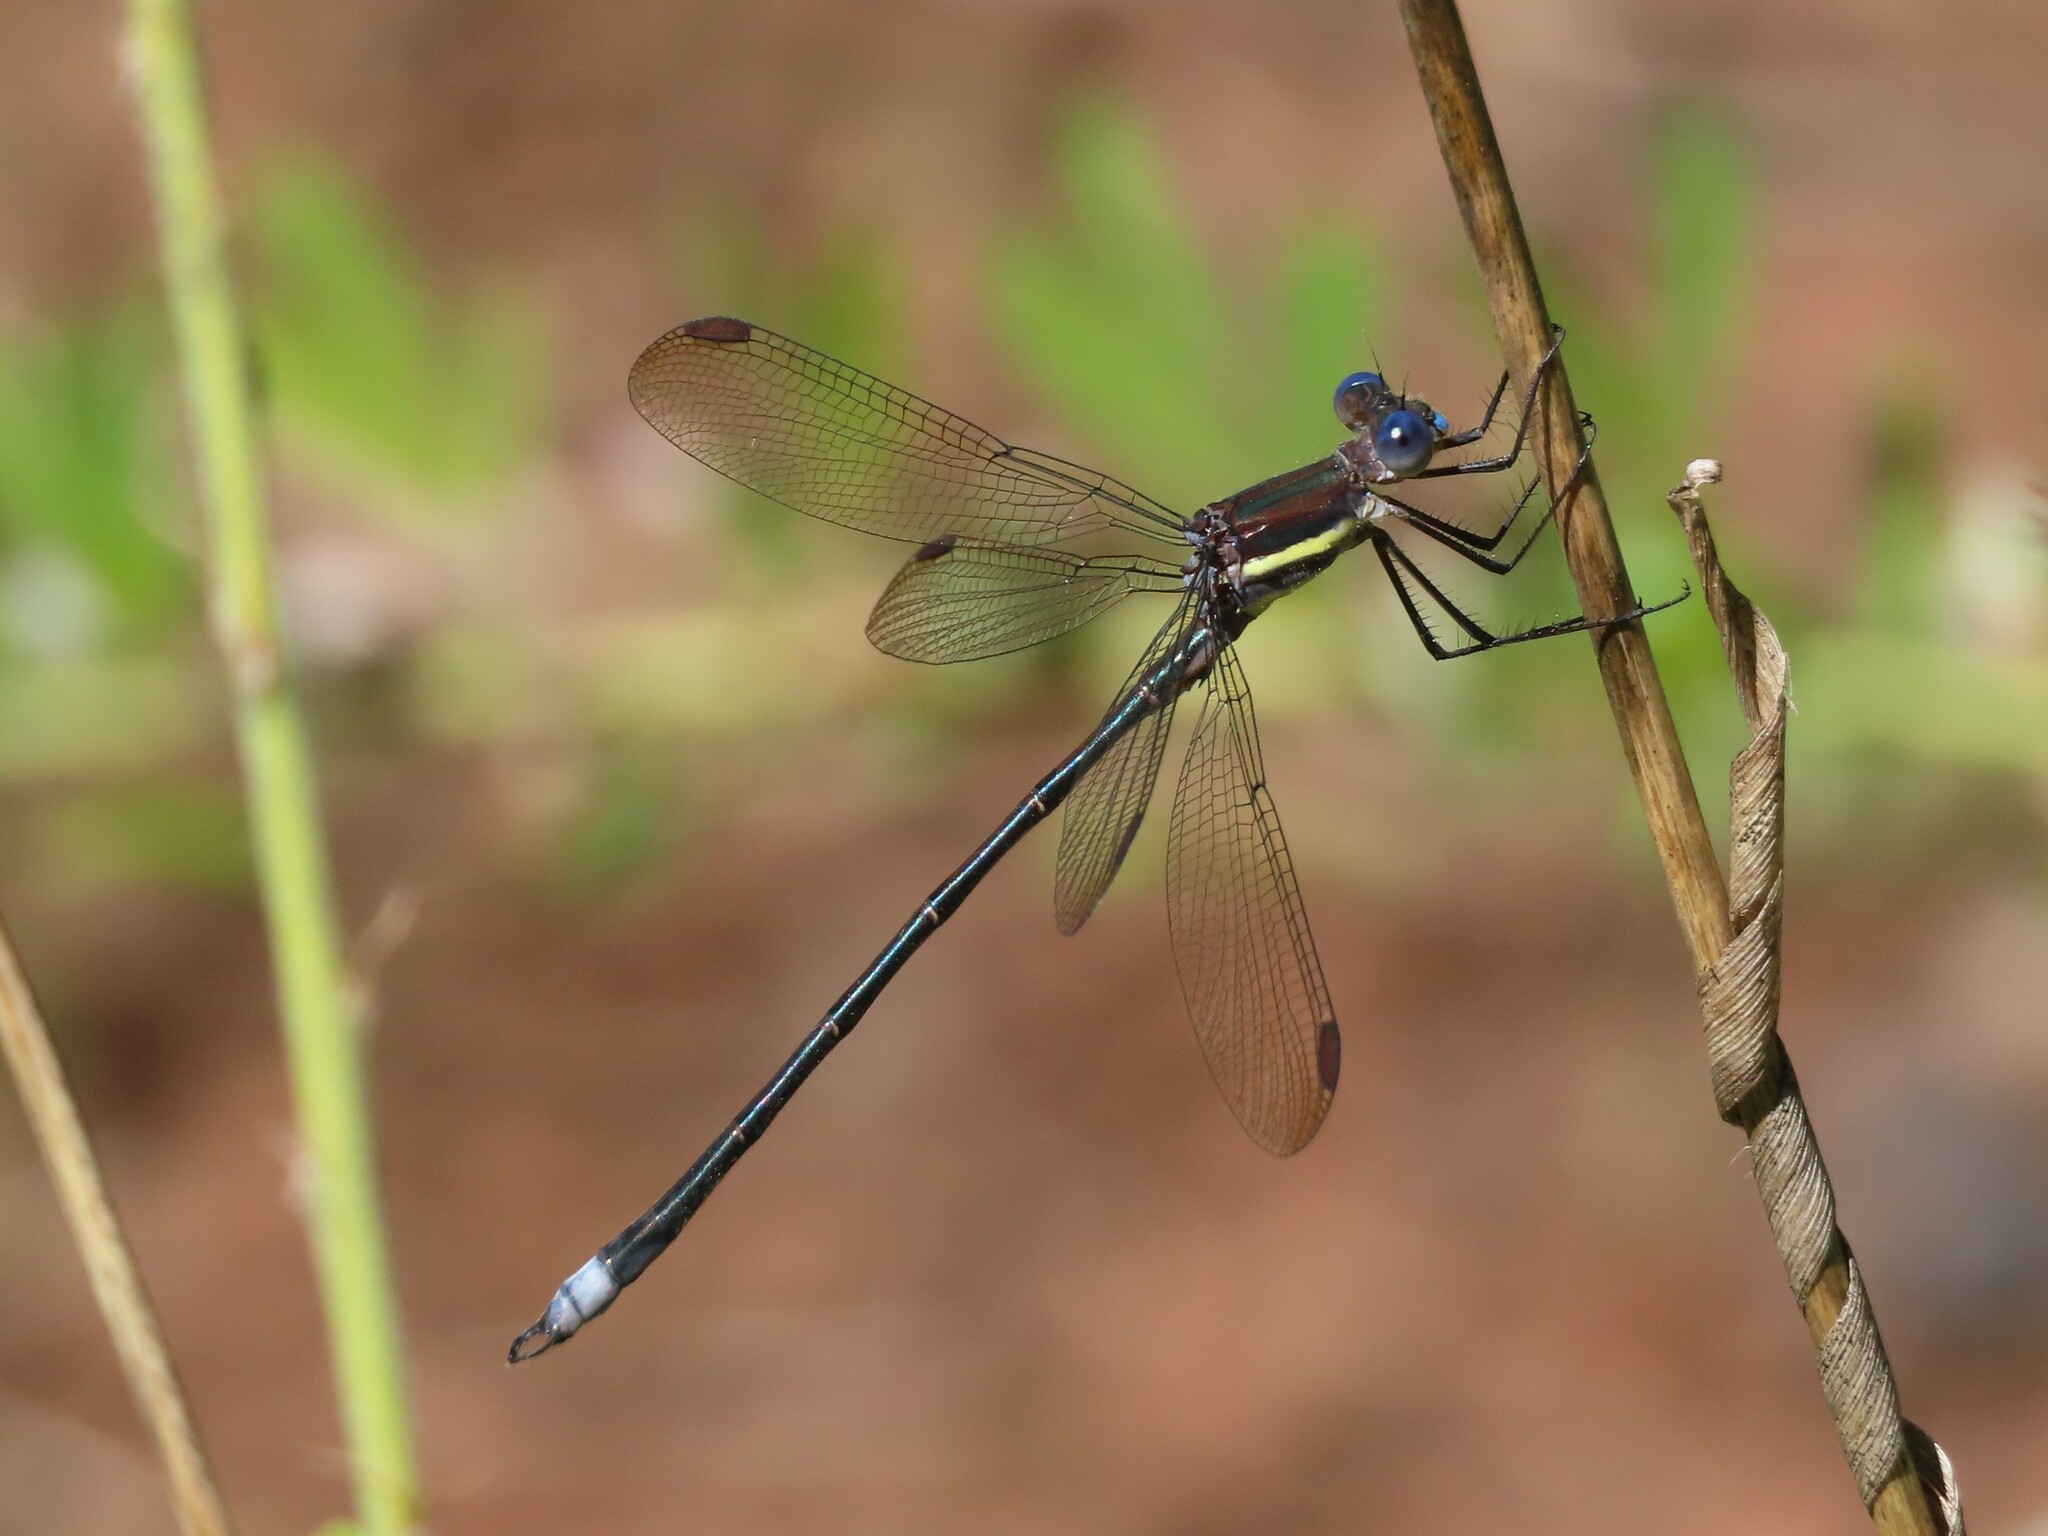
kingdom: Animalia
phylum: Arthropoda
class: Insecta
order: Odonata
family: Lestidae
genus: Archilestes
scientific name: Archilestes grandis
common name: Great spreadwing
